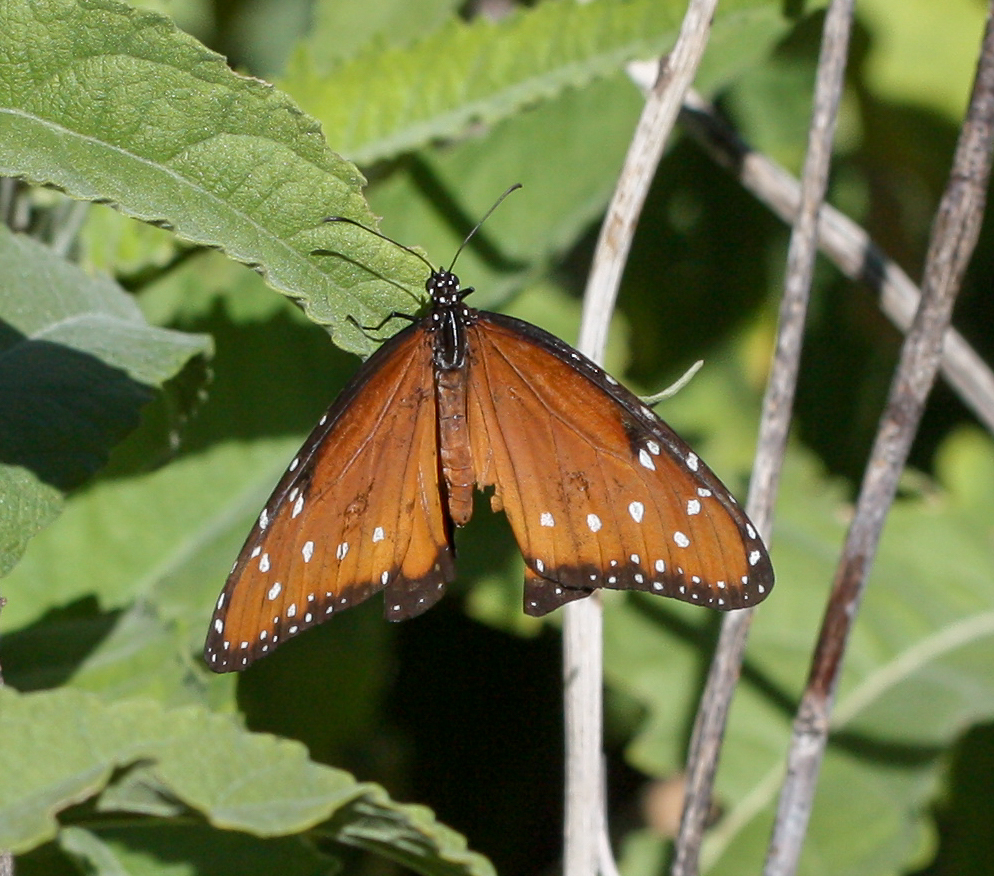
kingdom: Animalia
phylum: Arthropoda
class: Insecta
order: Lepidoptera
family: Nymphalidae
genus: Danaus
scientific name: Danaus gilippus
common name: Queen
